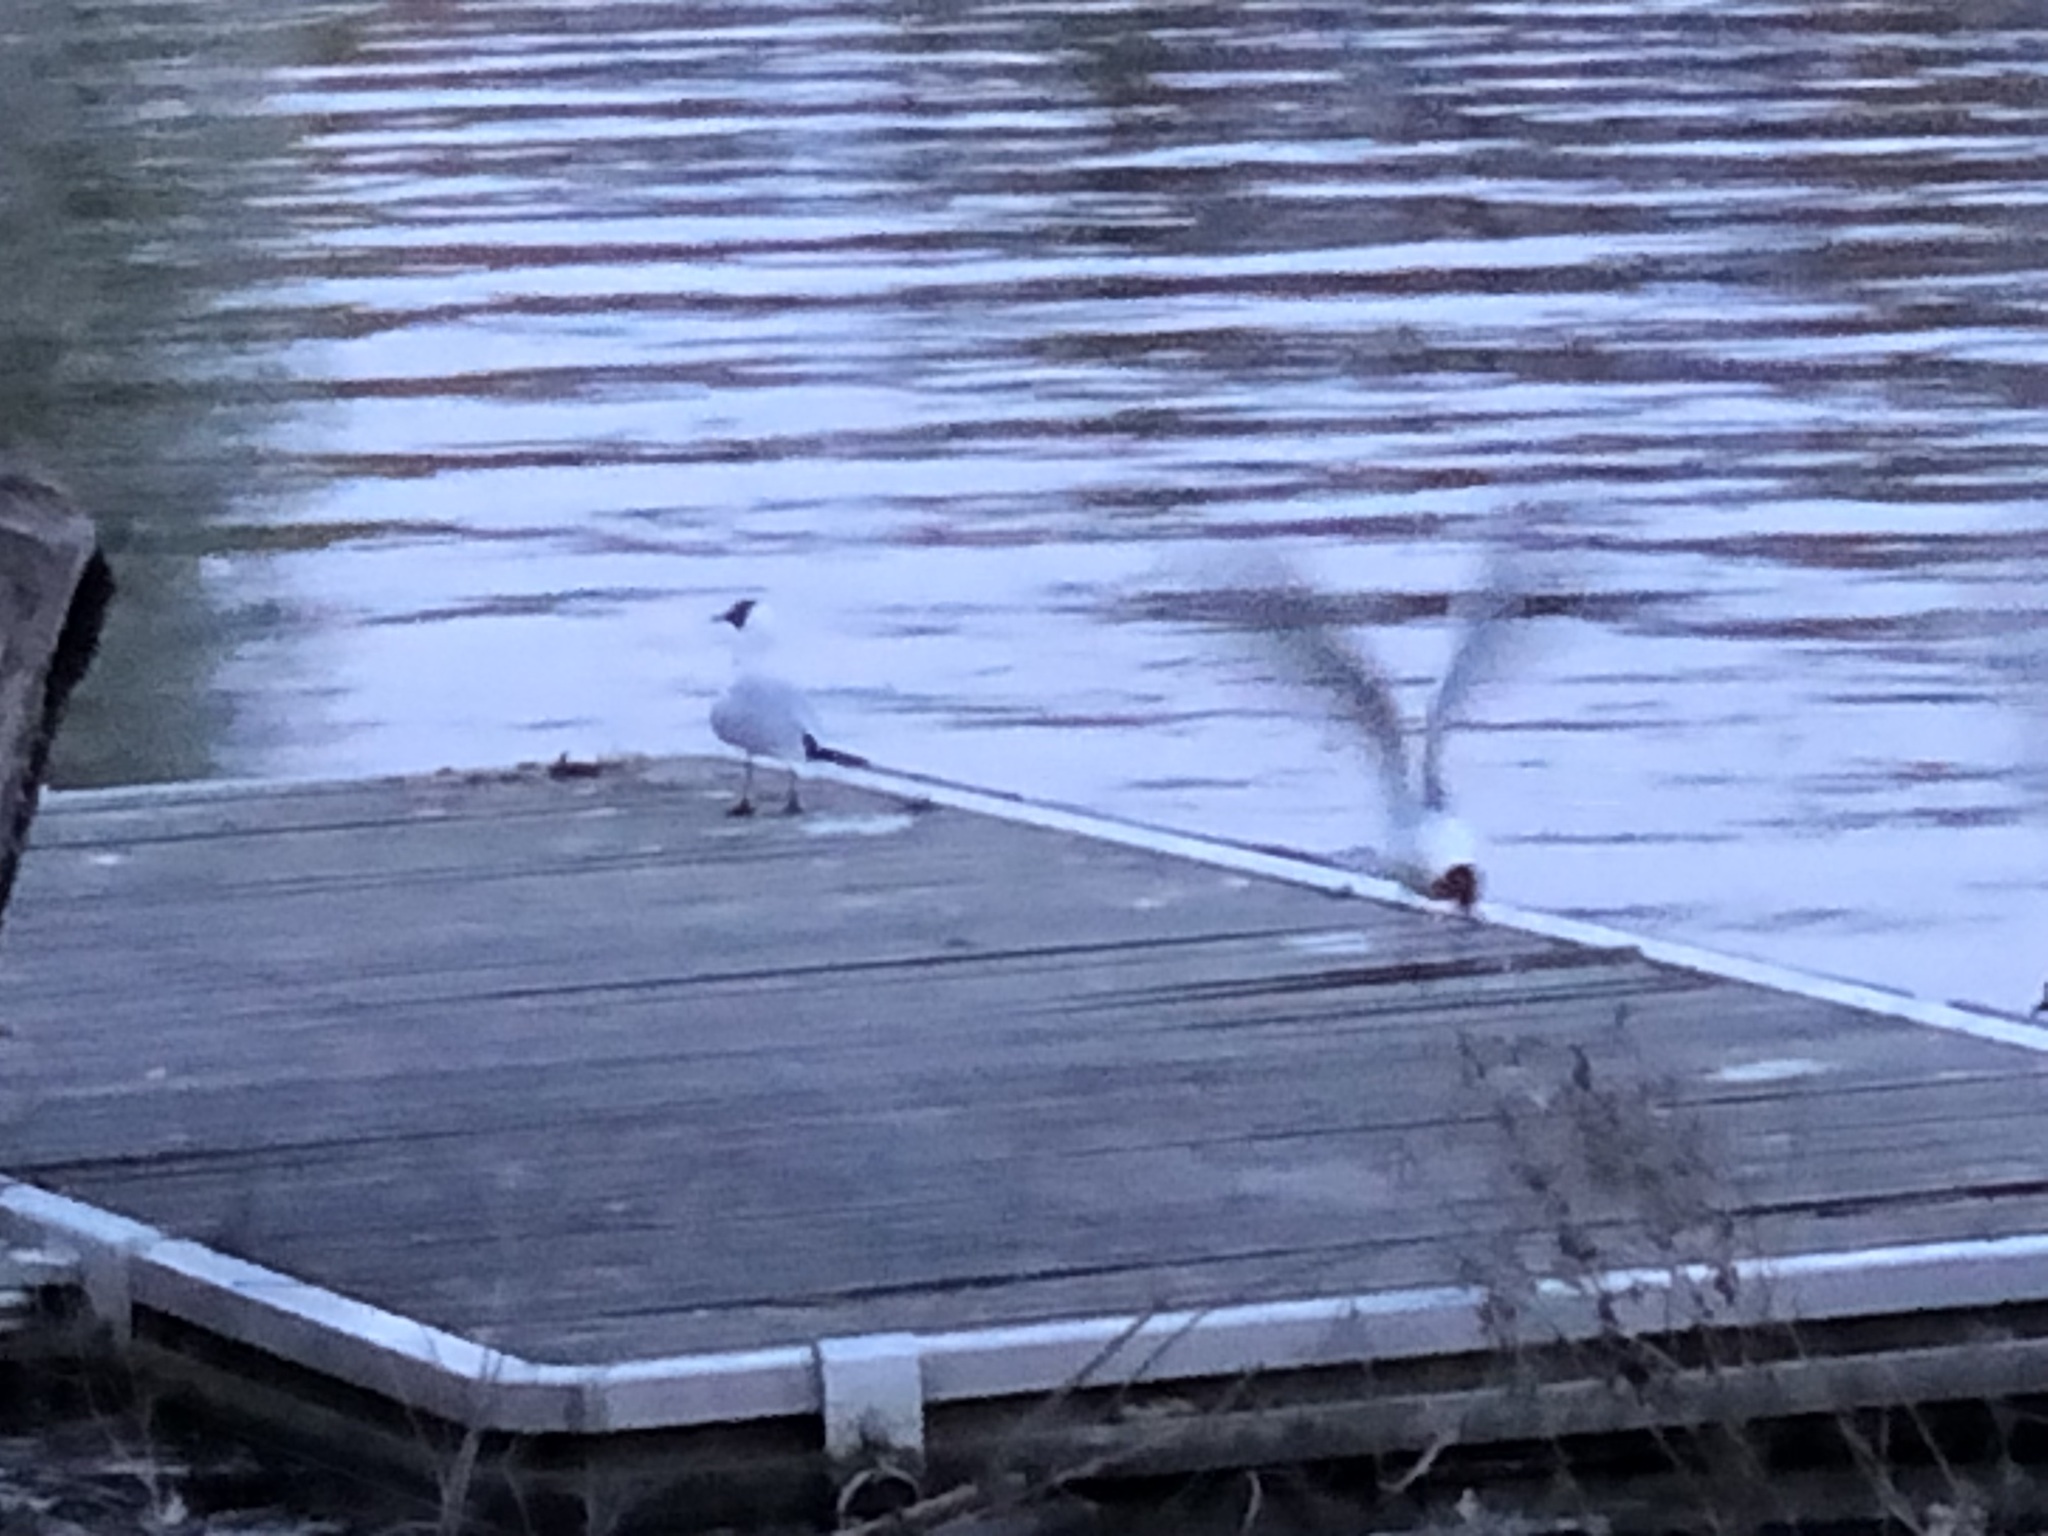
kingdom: Animalia
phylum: Chordata
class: Aves
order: Charadriiformes
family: Laridae
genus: Chroicocephalus
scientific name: Chroicocephalus ridibundus
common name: Black-headed gull
